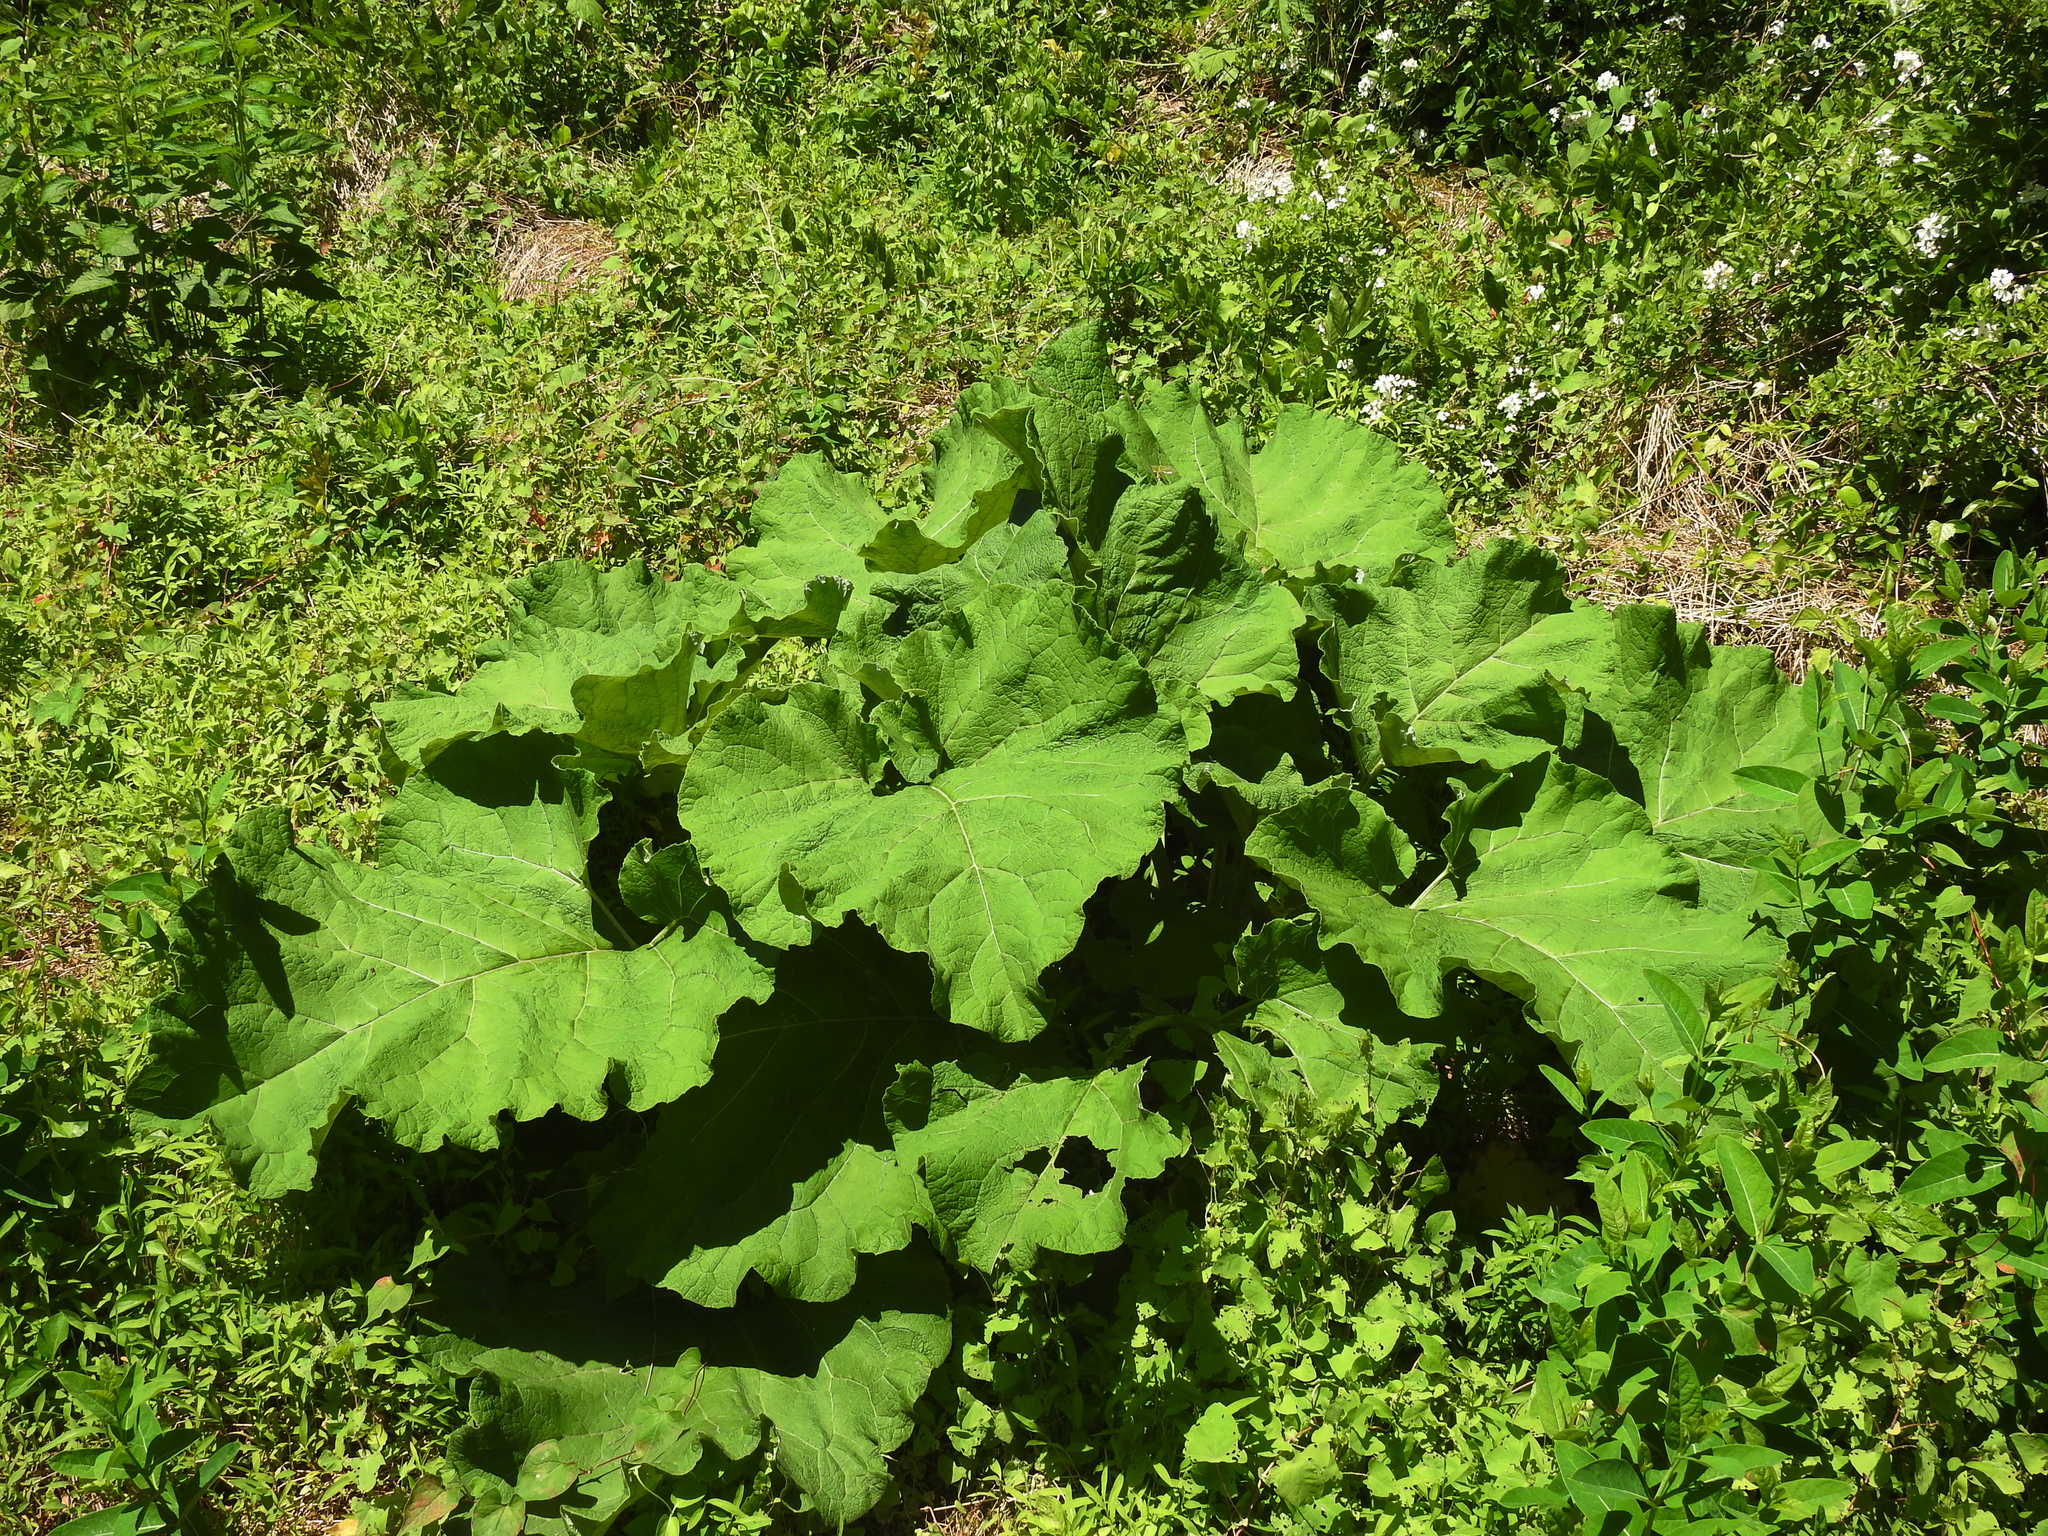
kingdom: Plantae
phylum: Tracheophyta
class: Magnoliopsida
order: Asterales
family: Asteraceae
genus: Arctium
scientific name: Arctium
